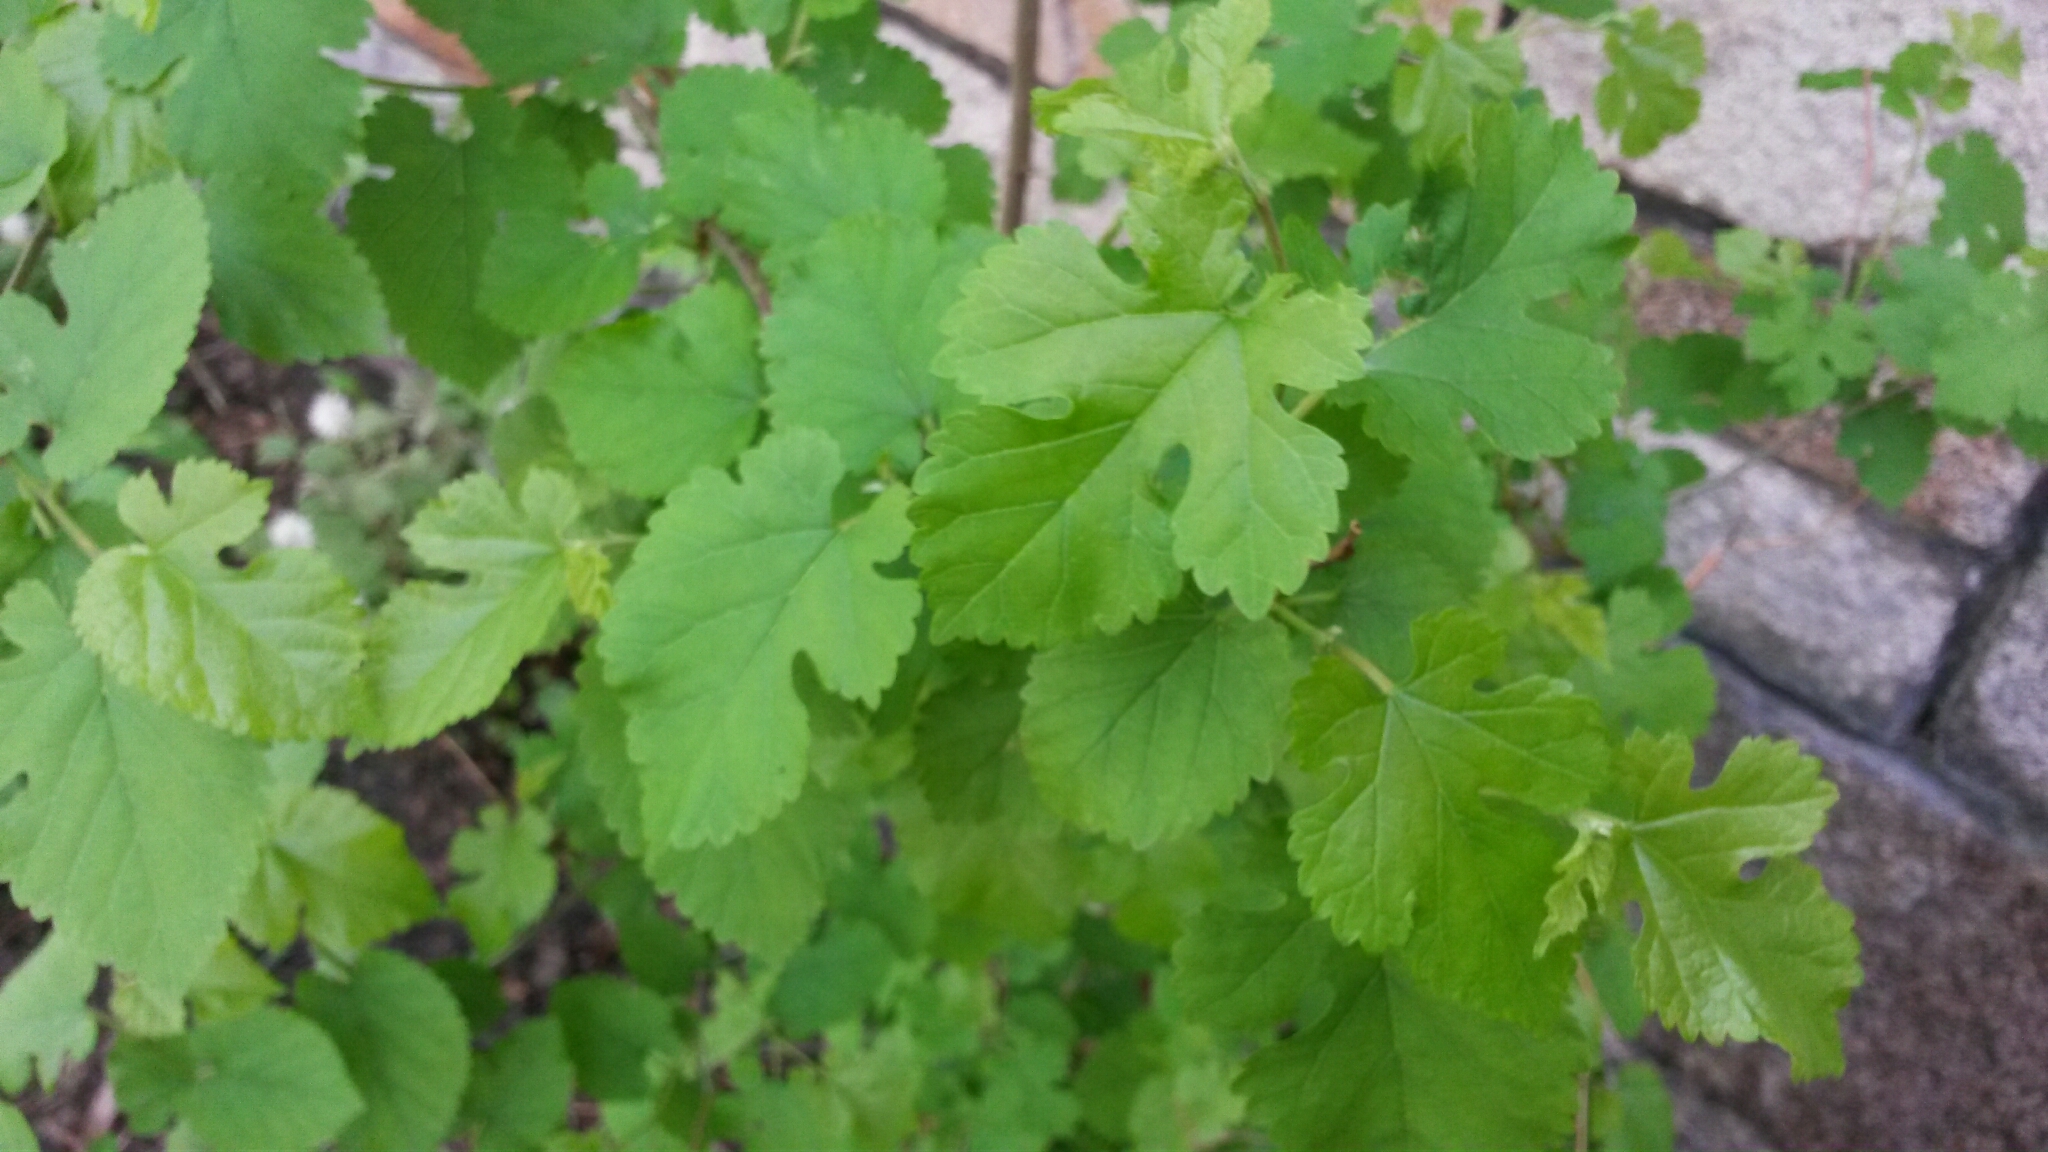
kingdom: Plantae
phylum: Tracheophyta
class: Magnoliopsida
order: Rosales
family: Moraceae
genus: Morus
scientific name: Morus alba
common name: White mulberry
